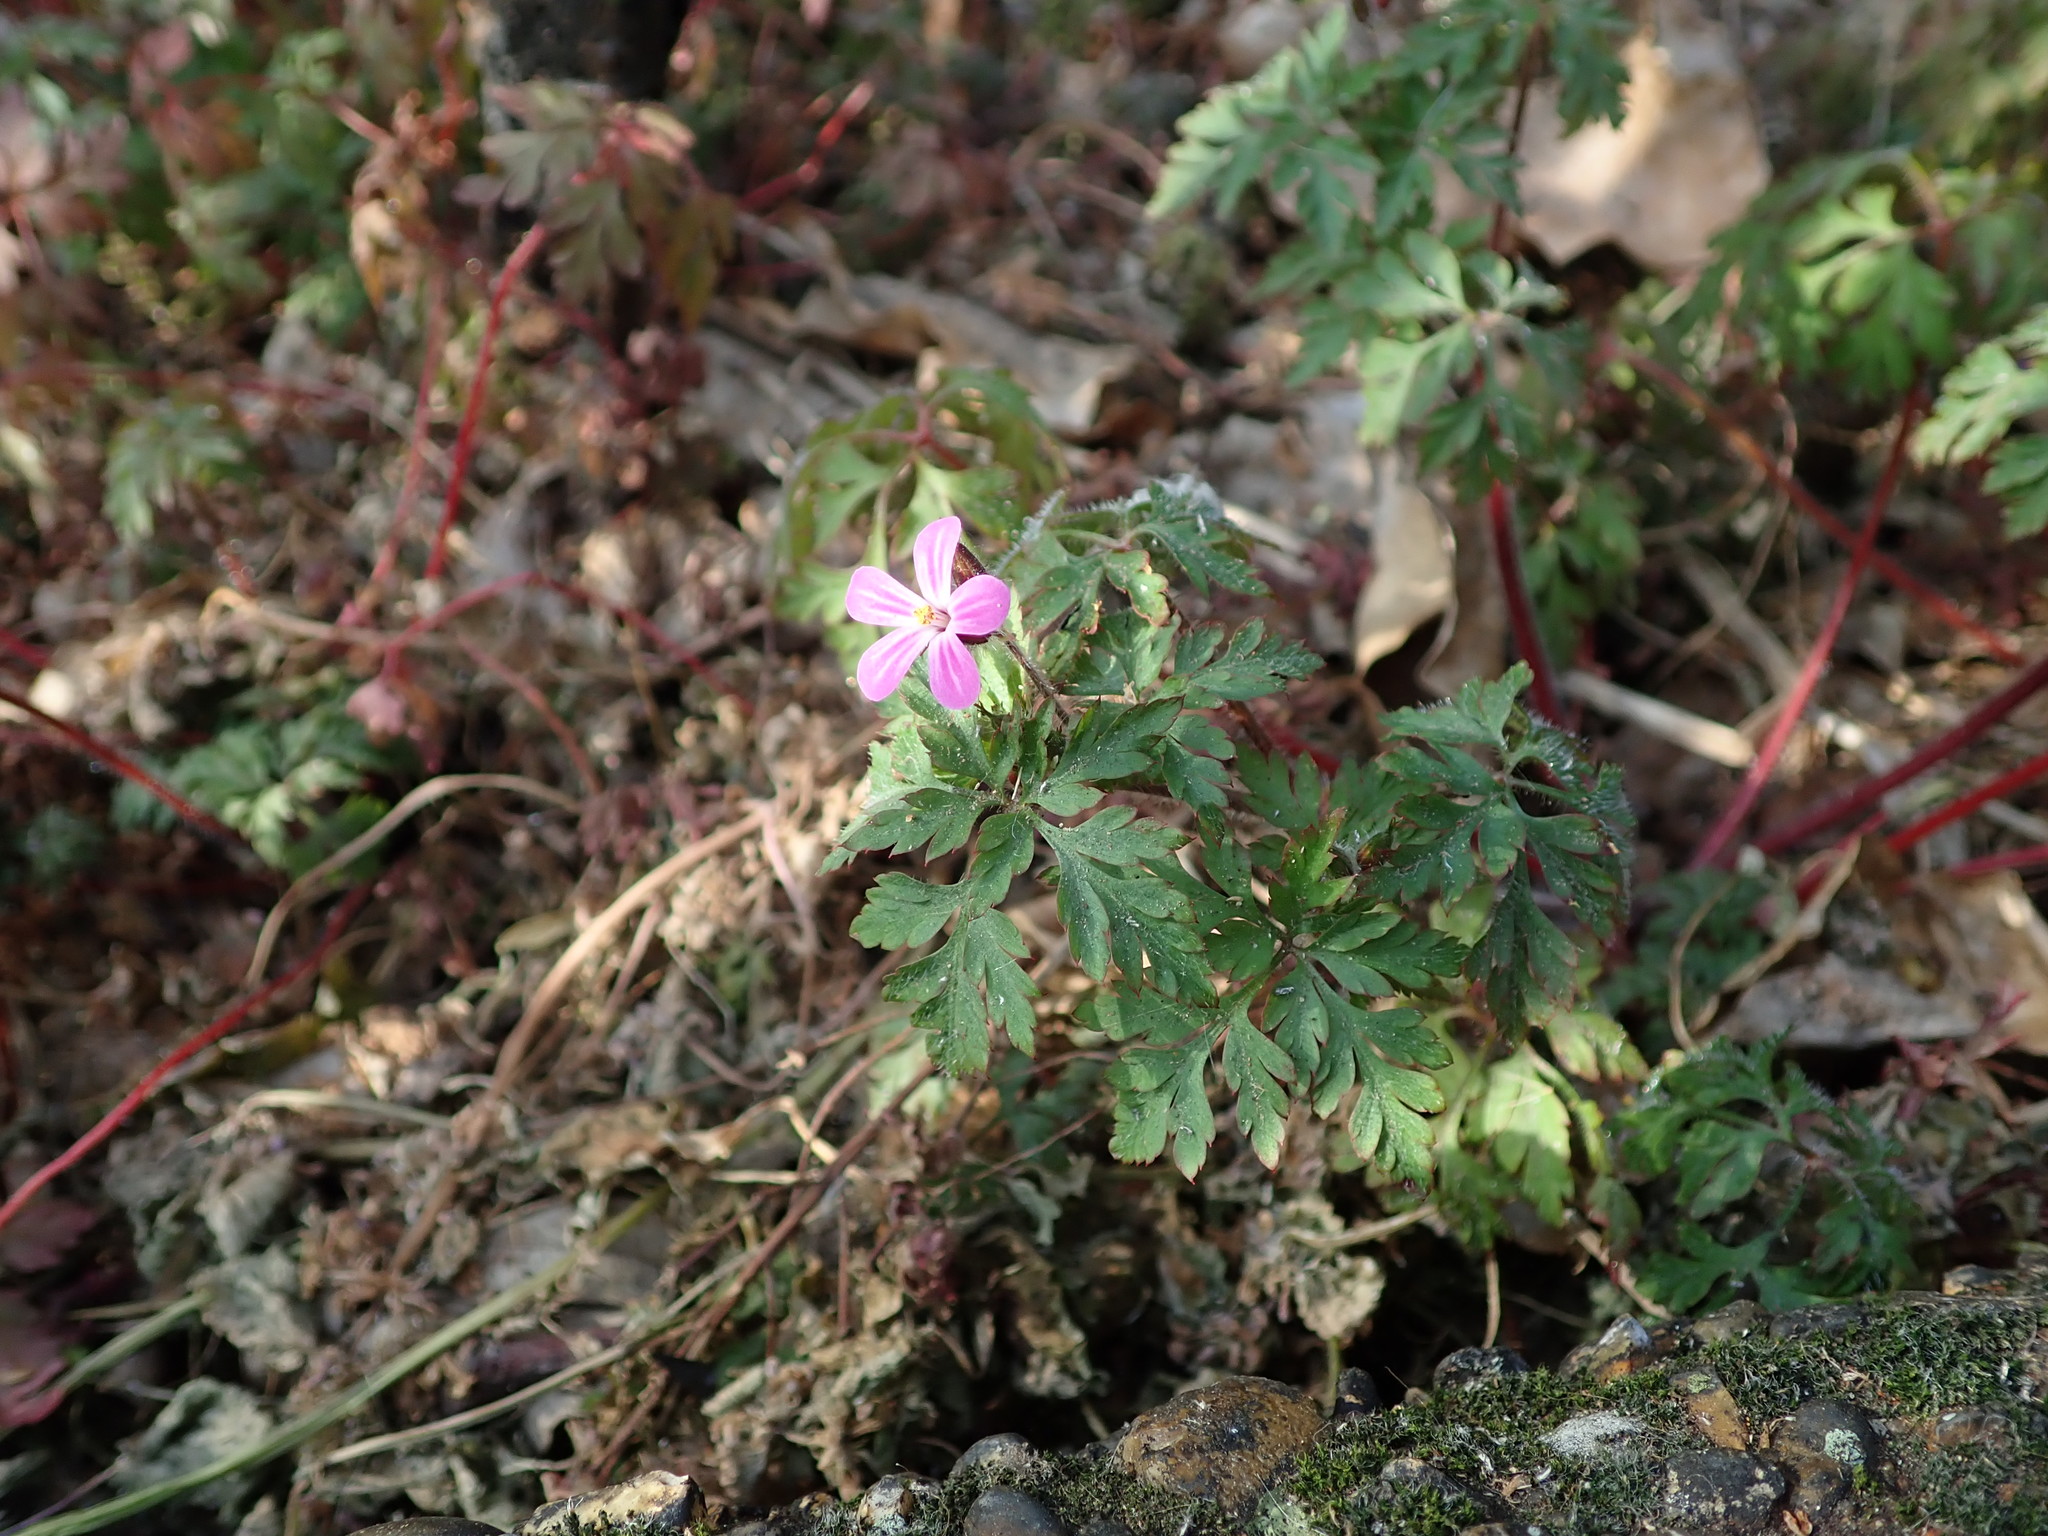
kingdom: Plantae
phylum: Tracheophyta
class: Magnoliopsida
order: Geraniales
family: Geraniaceae
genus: Geranium
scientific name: Geranium robertianum
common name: Herb-robert
